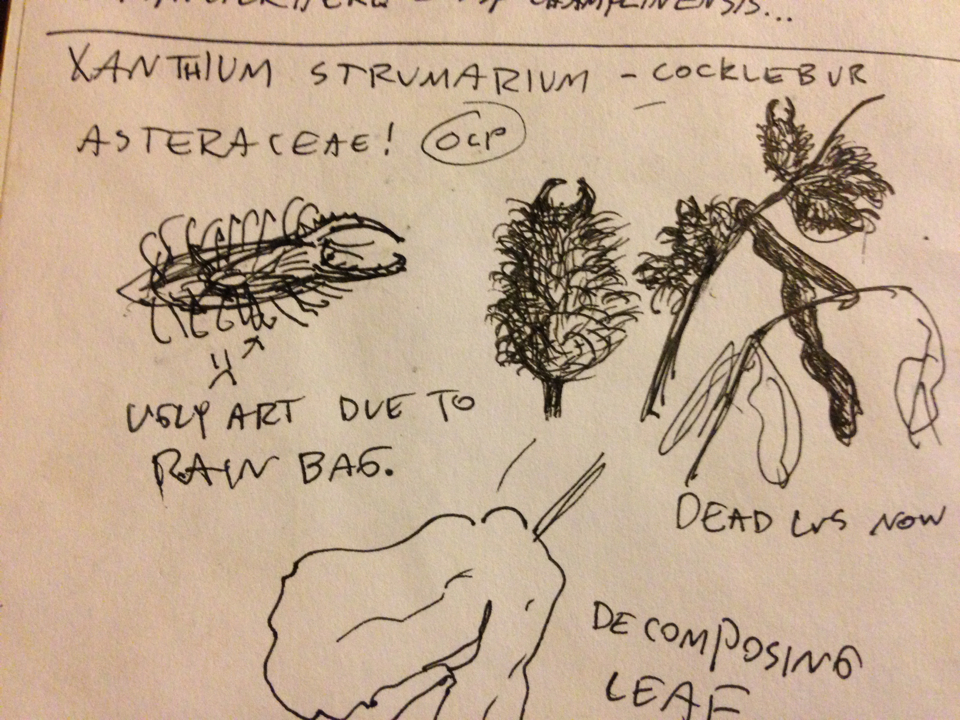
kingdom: Plantae
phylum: Tracheophyta
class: Magnoliopsida
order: Asterales
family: Asteraceae
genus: Xanthium
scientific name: Xanthium strumarium
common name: Rough cocklebur
